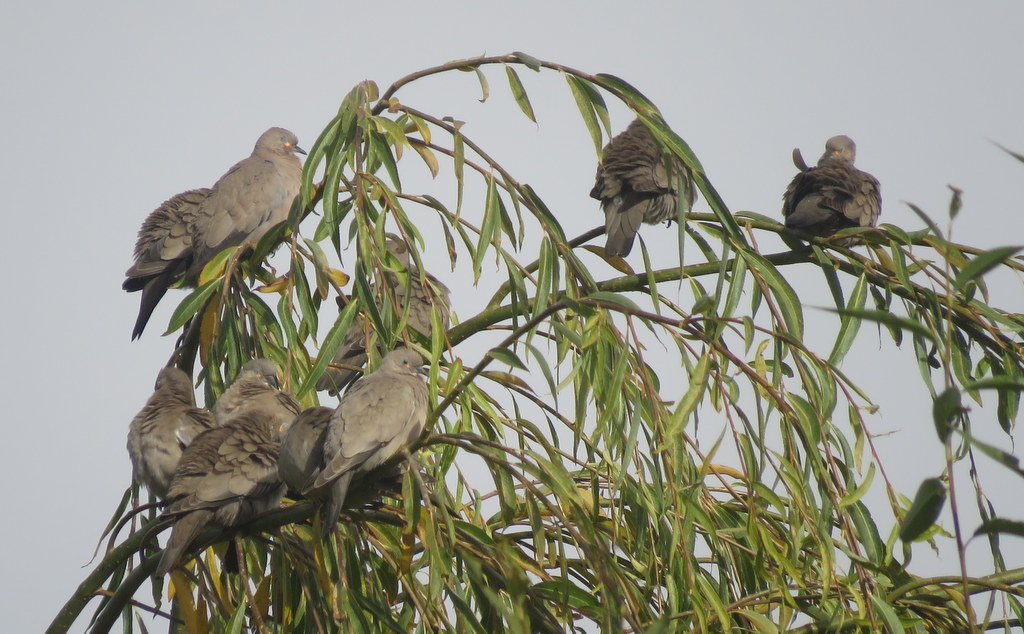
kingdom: Animalia
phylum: Chordata
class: Aves
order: Columbiformes
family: Columbidae
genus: Metriopelia
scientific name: Metriopelia melanoptera
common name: Black-winged ground dove
